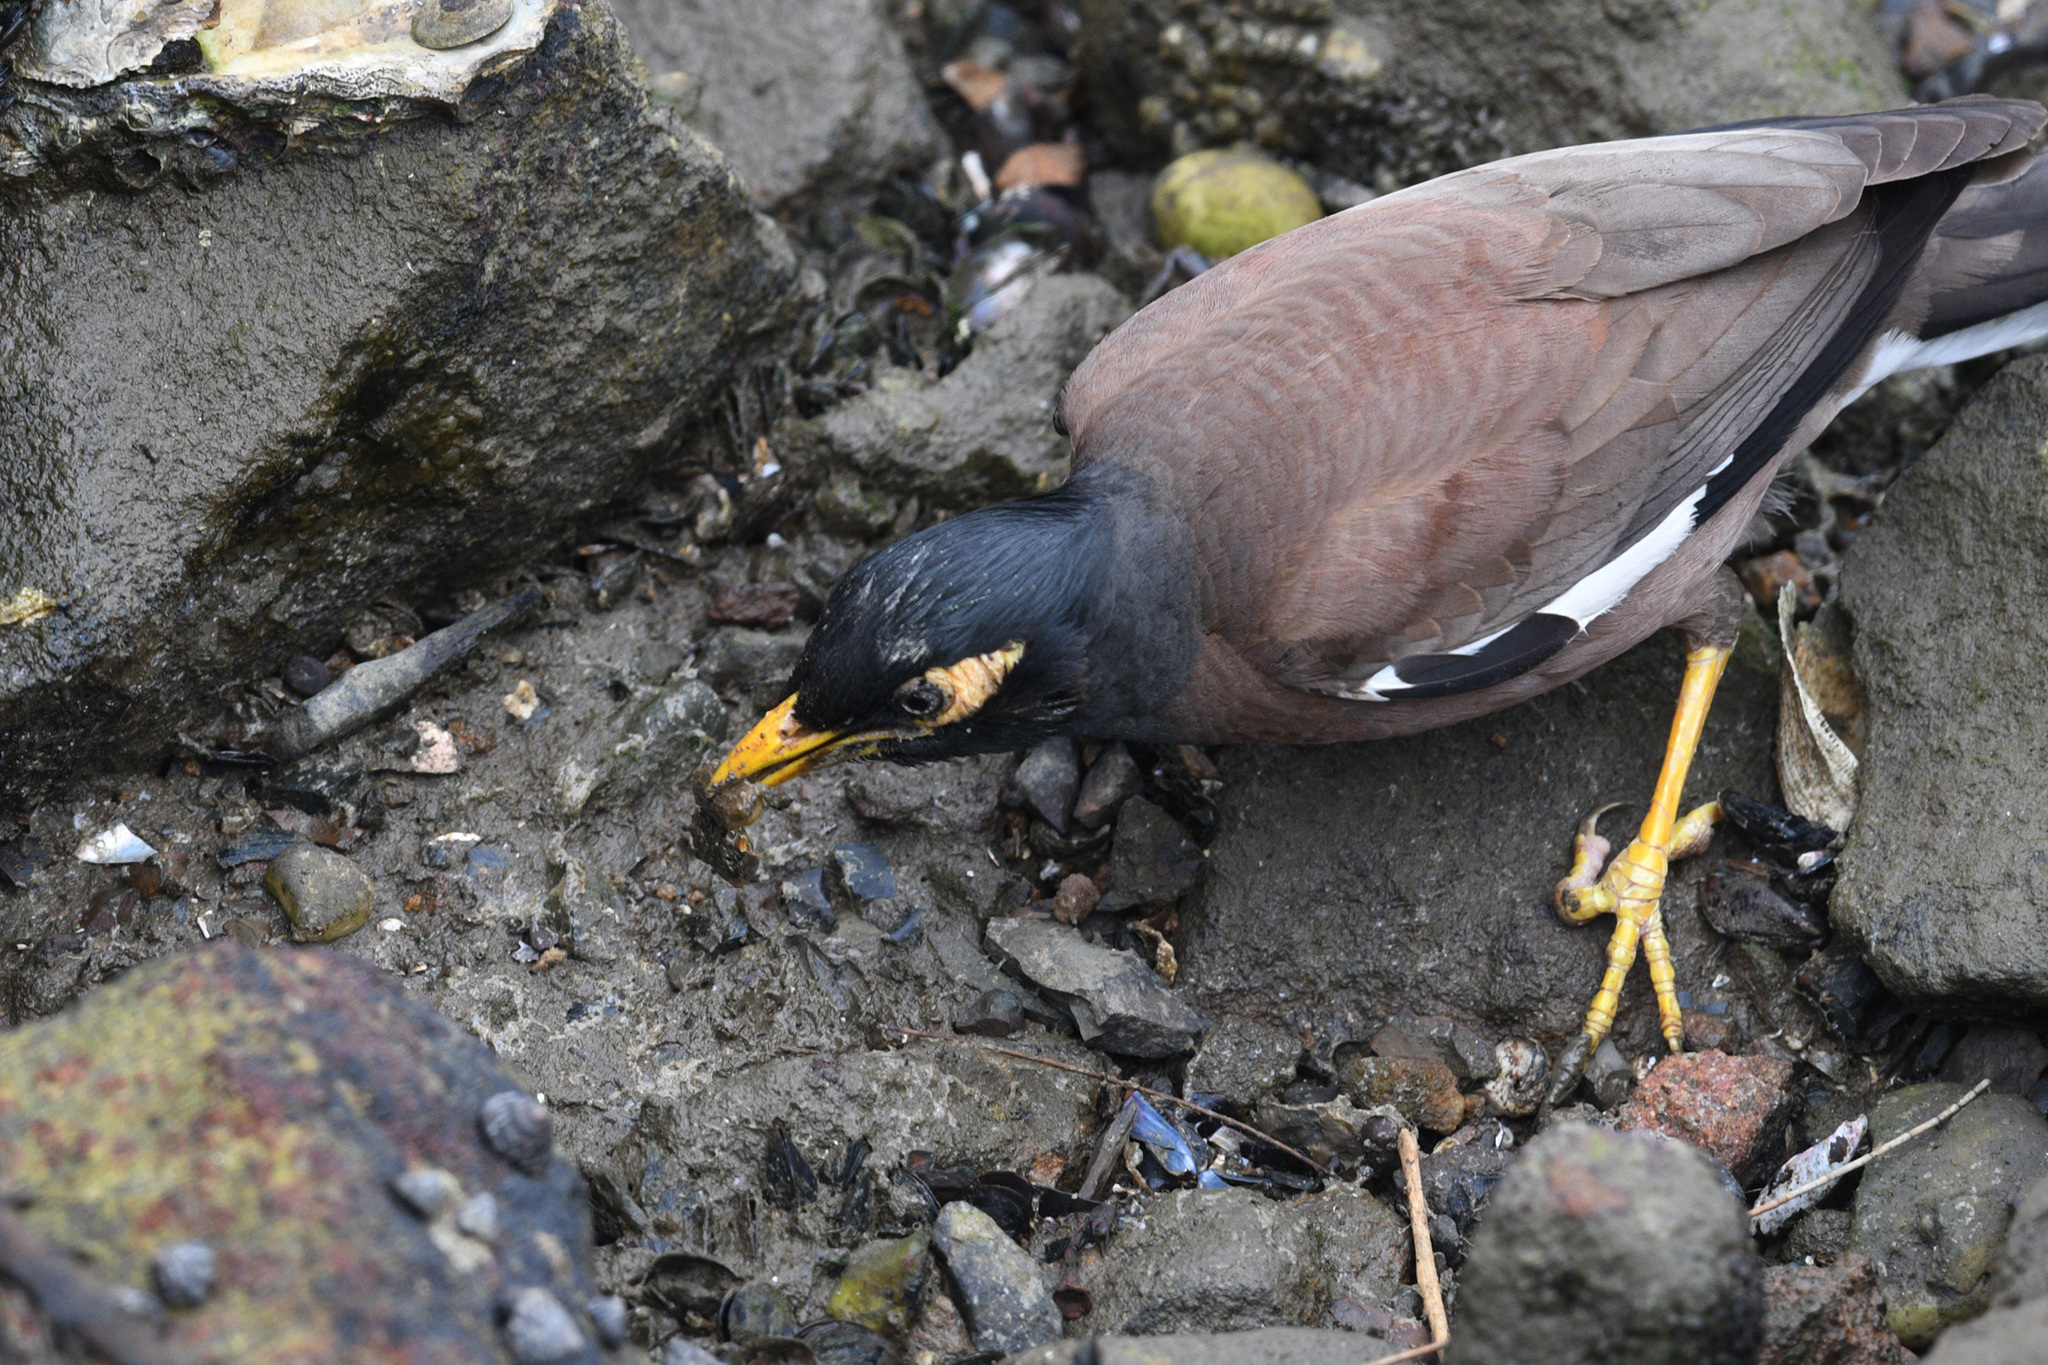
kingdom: Animalia
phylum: Chordata
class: Aves
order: Passeriformes
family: Sturnidae
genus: Acridotheres
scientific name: Acridotheres tristis
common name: Common myna
